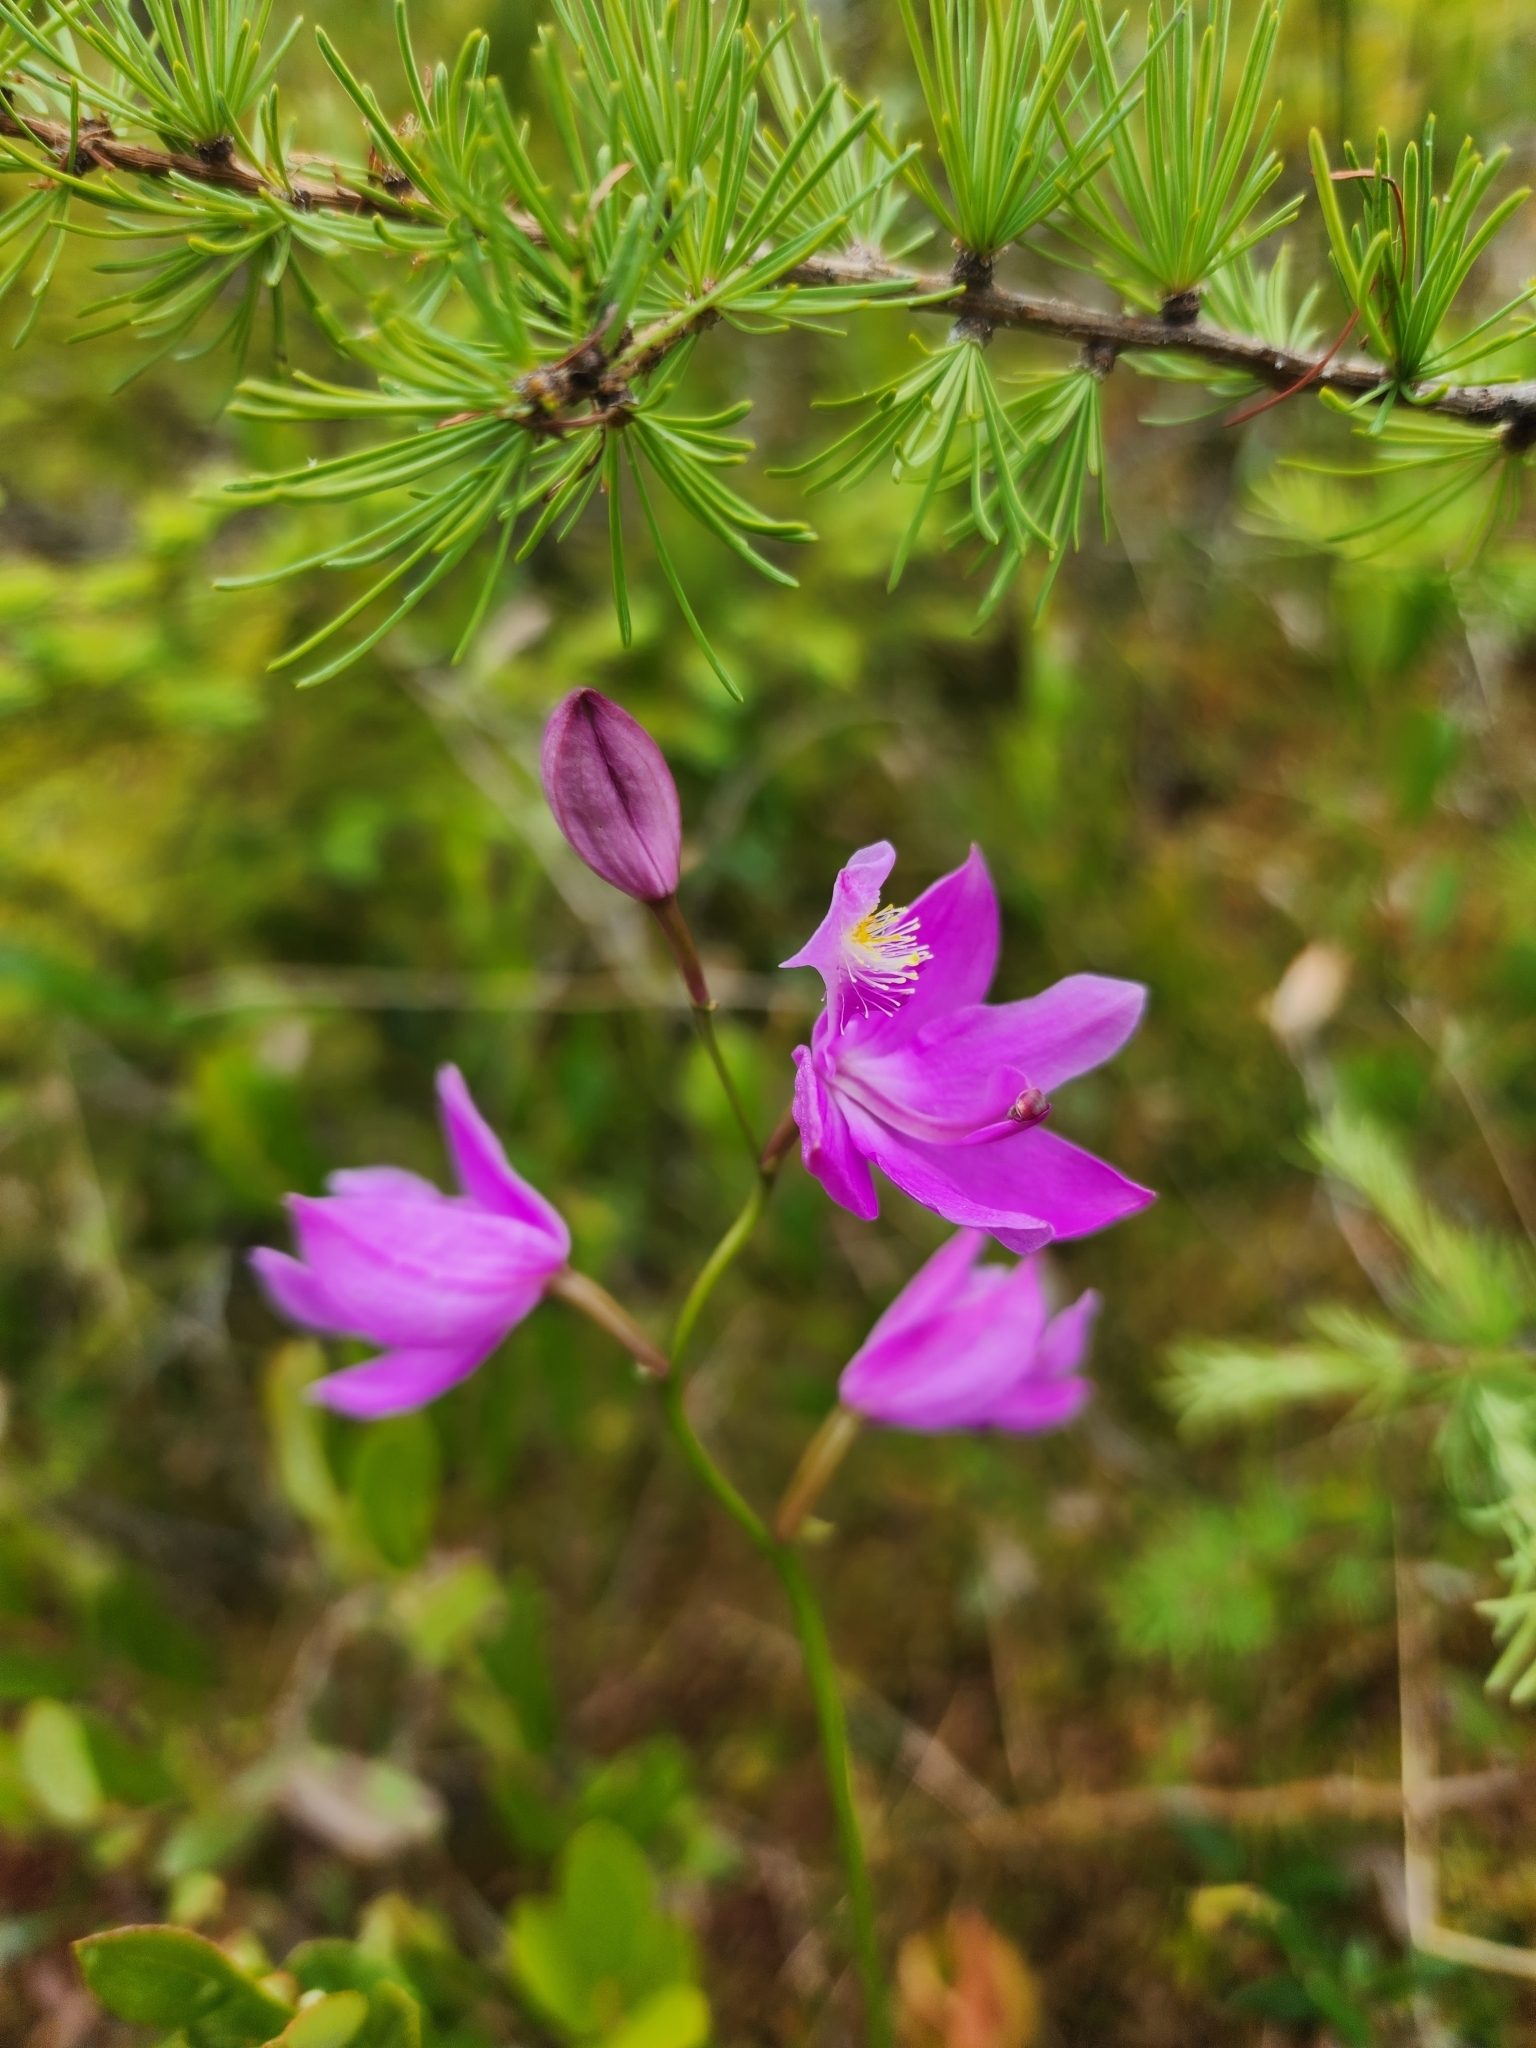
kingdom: Plantae
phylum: Tracheophyta
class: Liliopsida
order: Asparagales
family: Orchidaceae
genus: Calopogon
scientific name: Calopogon tuberosus
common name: Grass-pink
